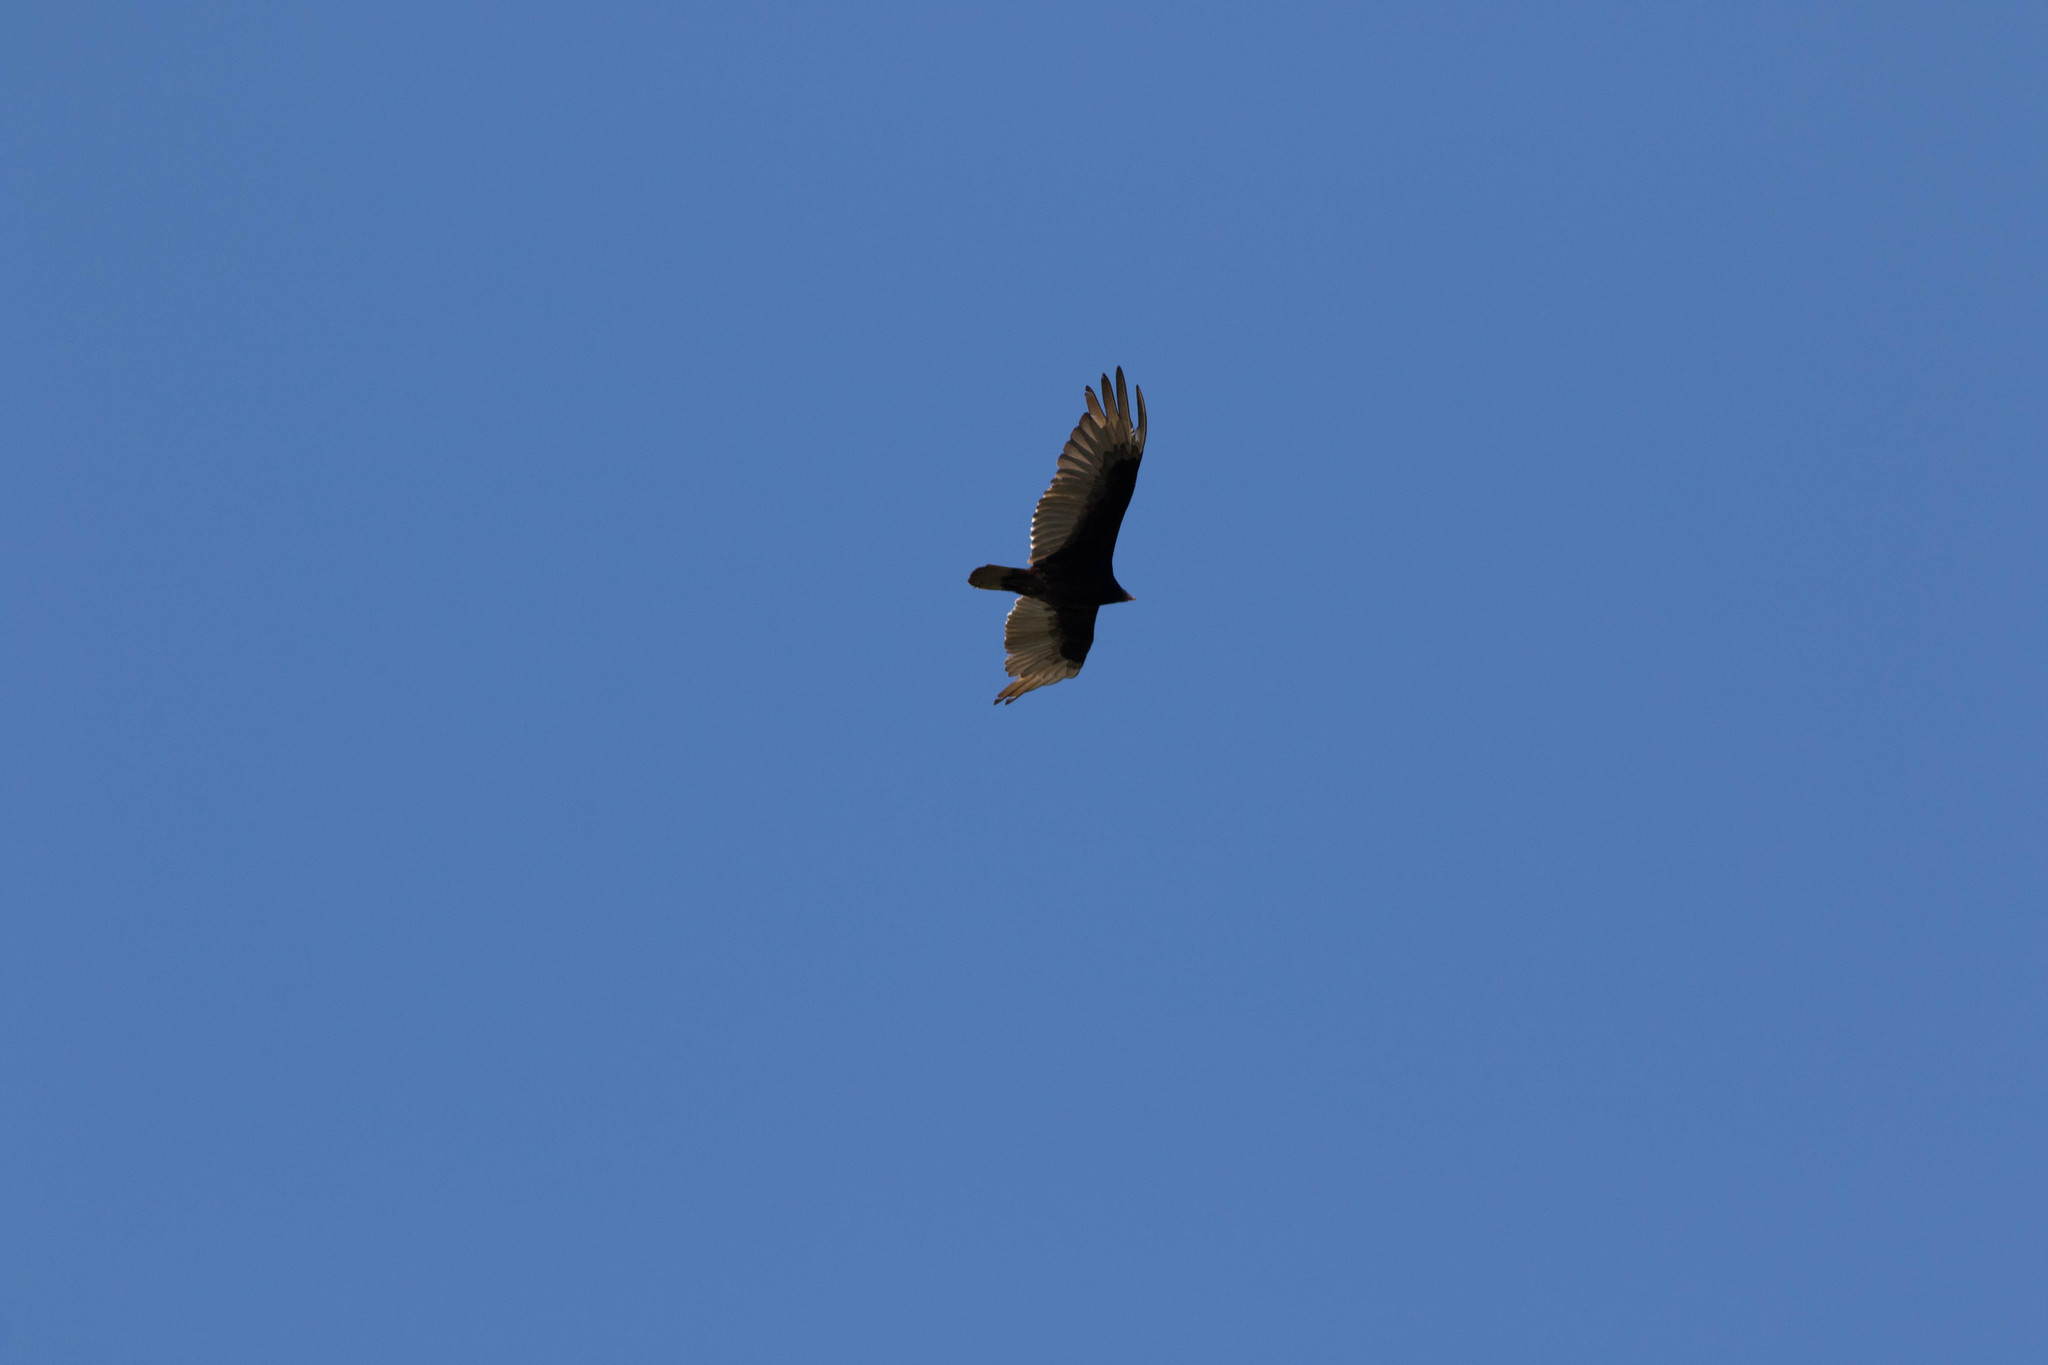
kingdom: Animalia
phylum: Chordata
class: Aves
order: Accipitriformes
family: Cathartidae
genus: Cathartes
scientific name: Cathartes aura
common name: Turkey vulture
